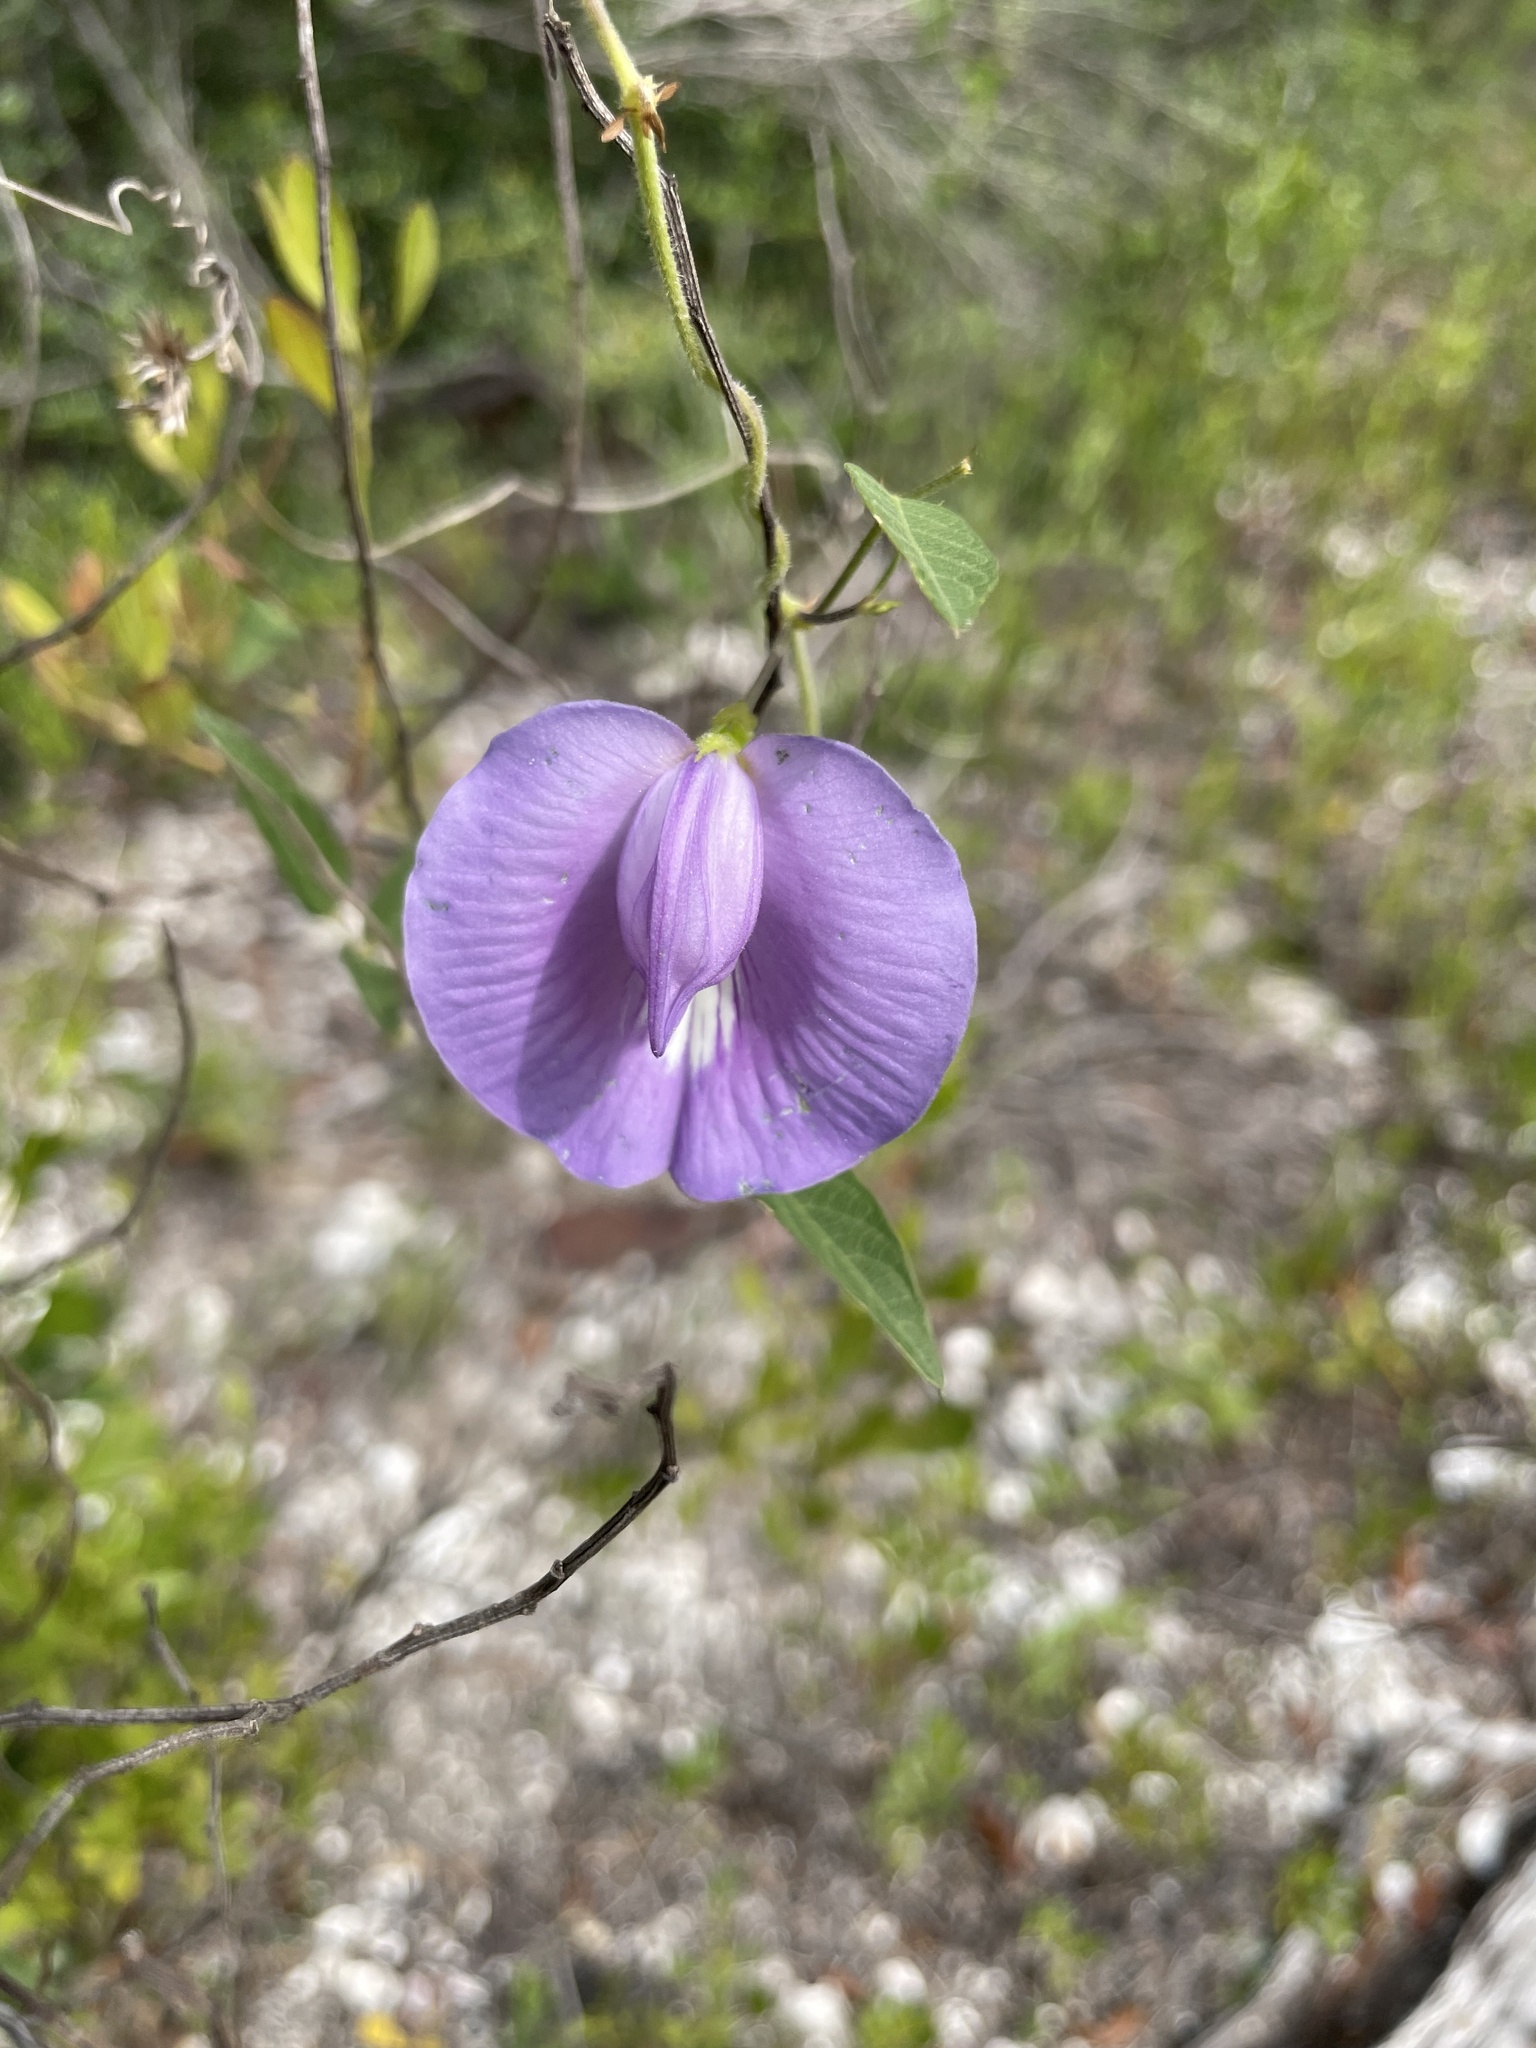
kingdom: Plantae
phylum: Tracheophyta
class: Magnoliopsida
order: Fabales
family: Fabaceae
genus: Centrosema
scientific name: Centrosema virginianum
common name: Butterfly-pea
